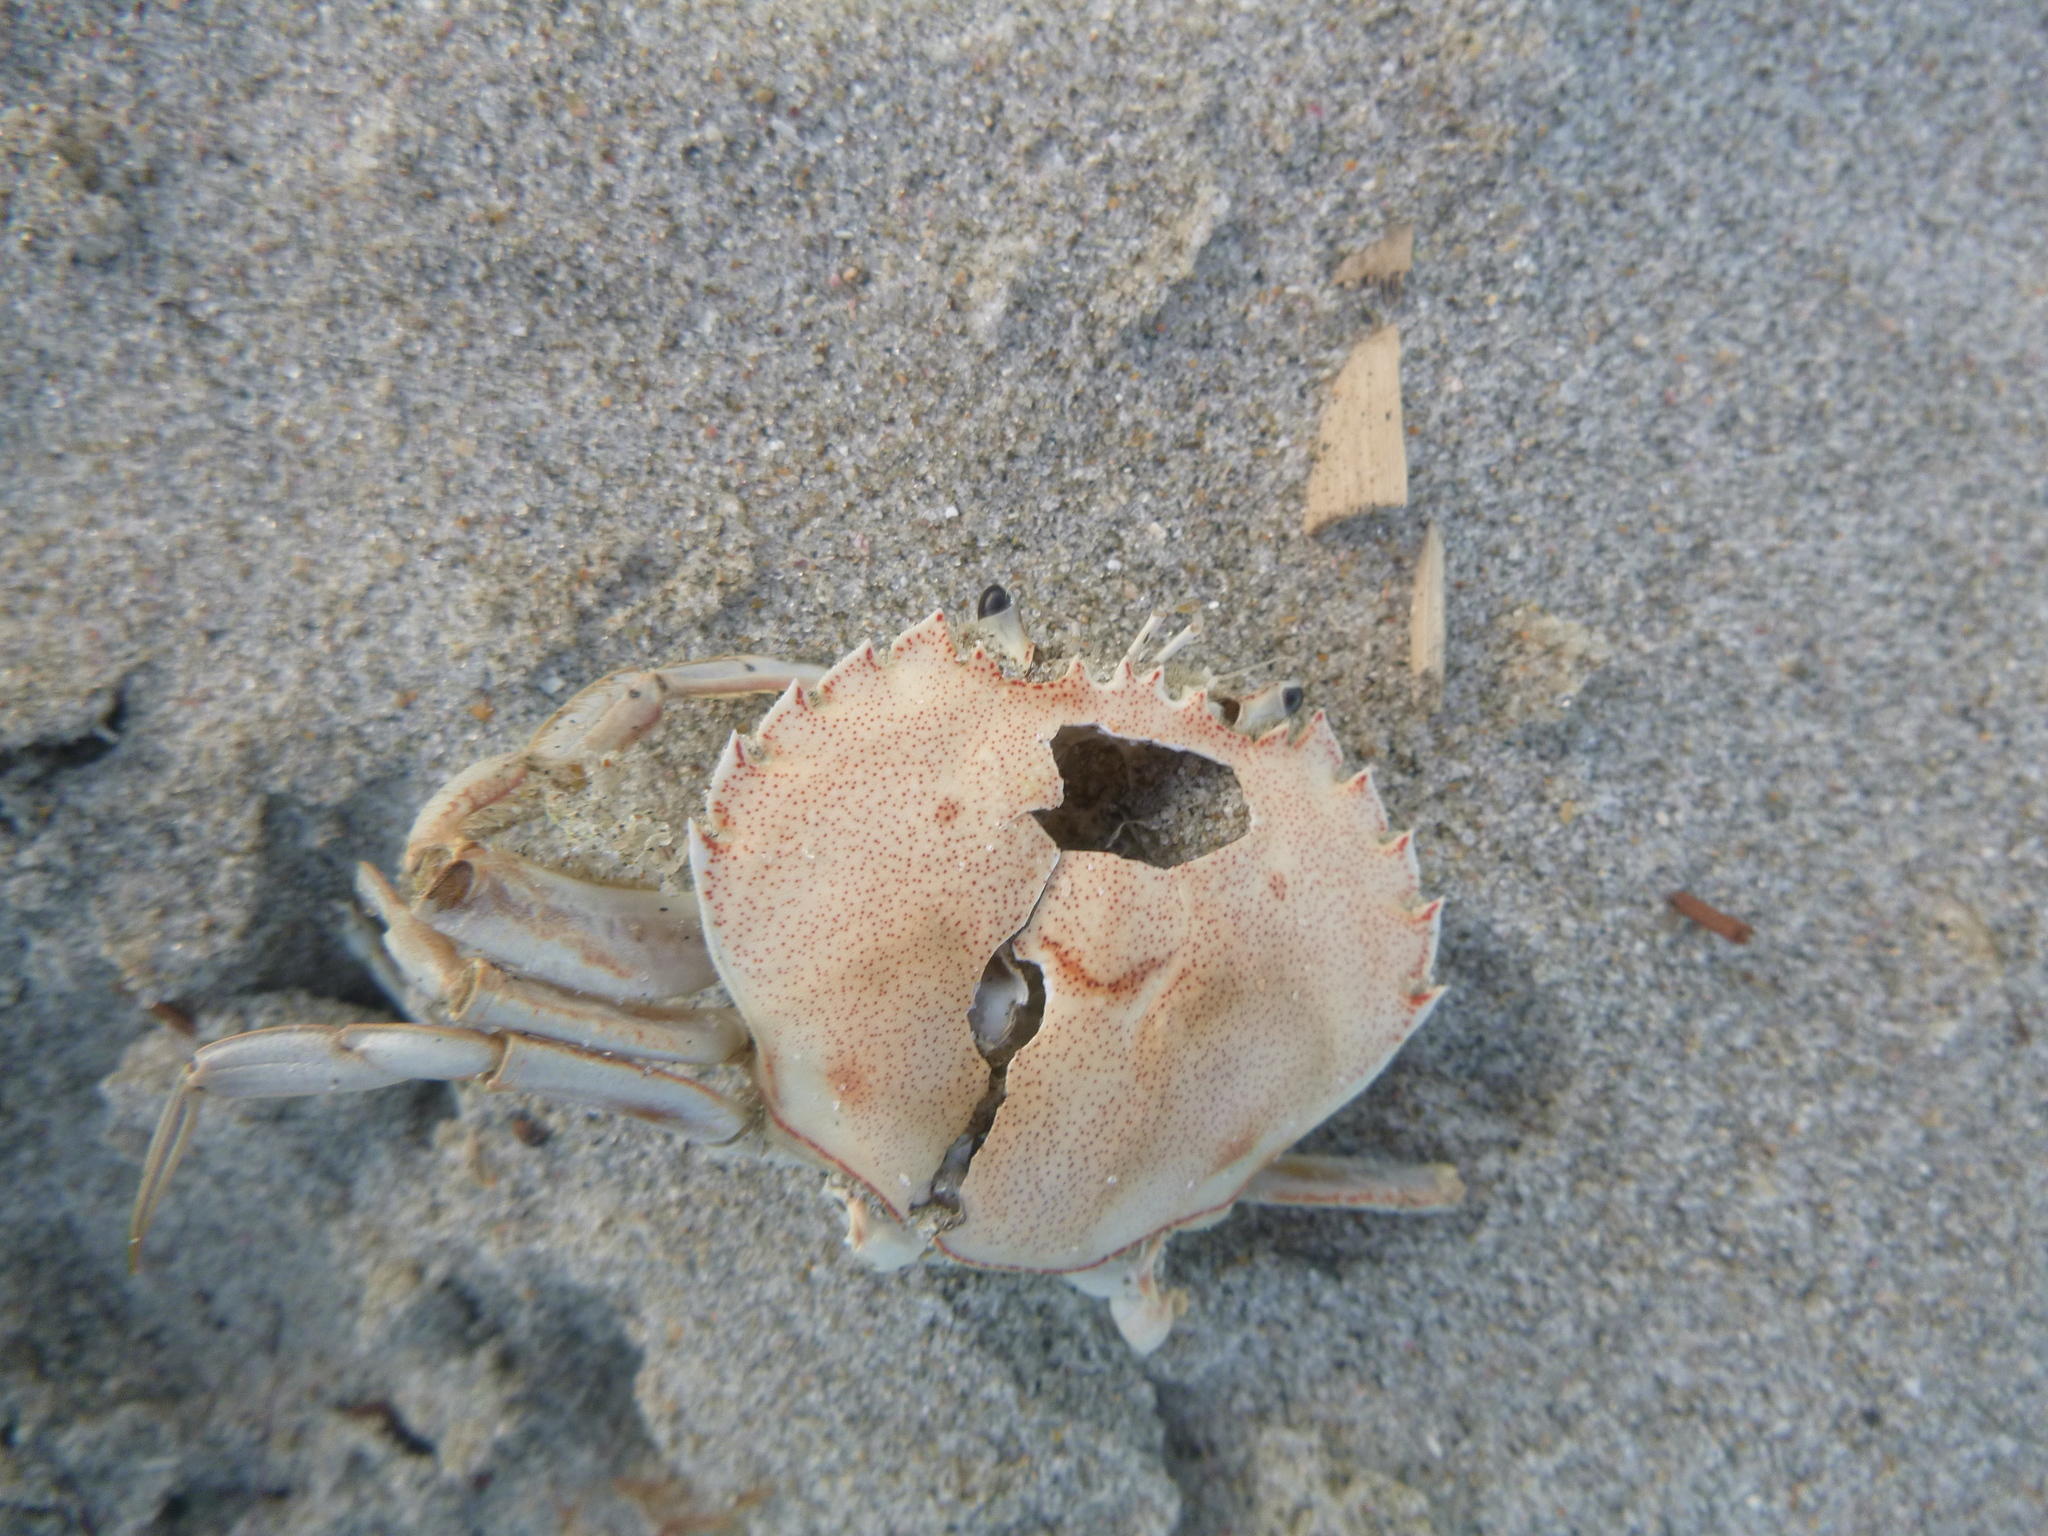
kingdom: Animalia
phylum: Arthropoda
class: Malacostraca
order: Decapoda
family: Ovalipidae
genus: Ovalipes
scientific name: Ovalipes catharus
